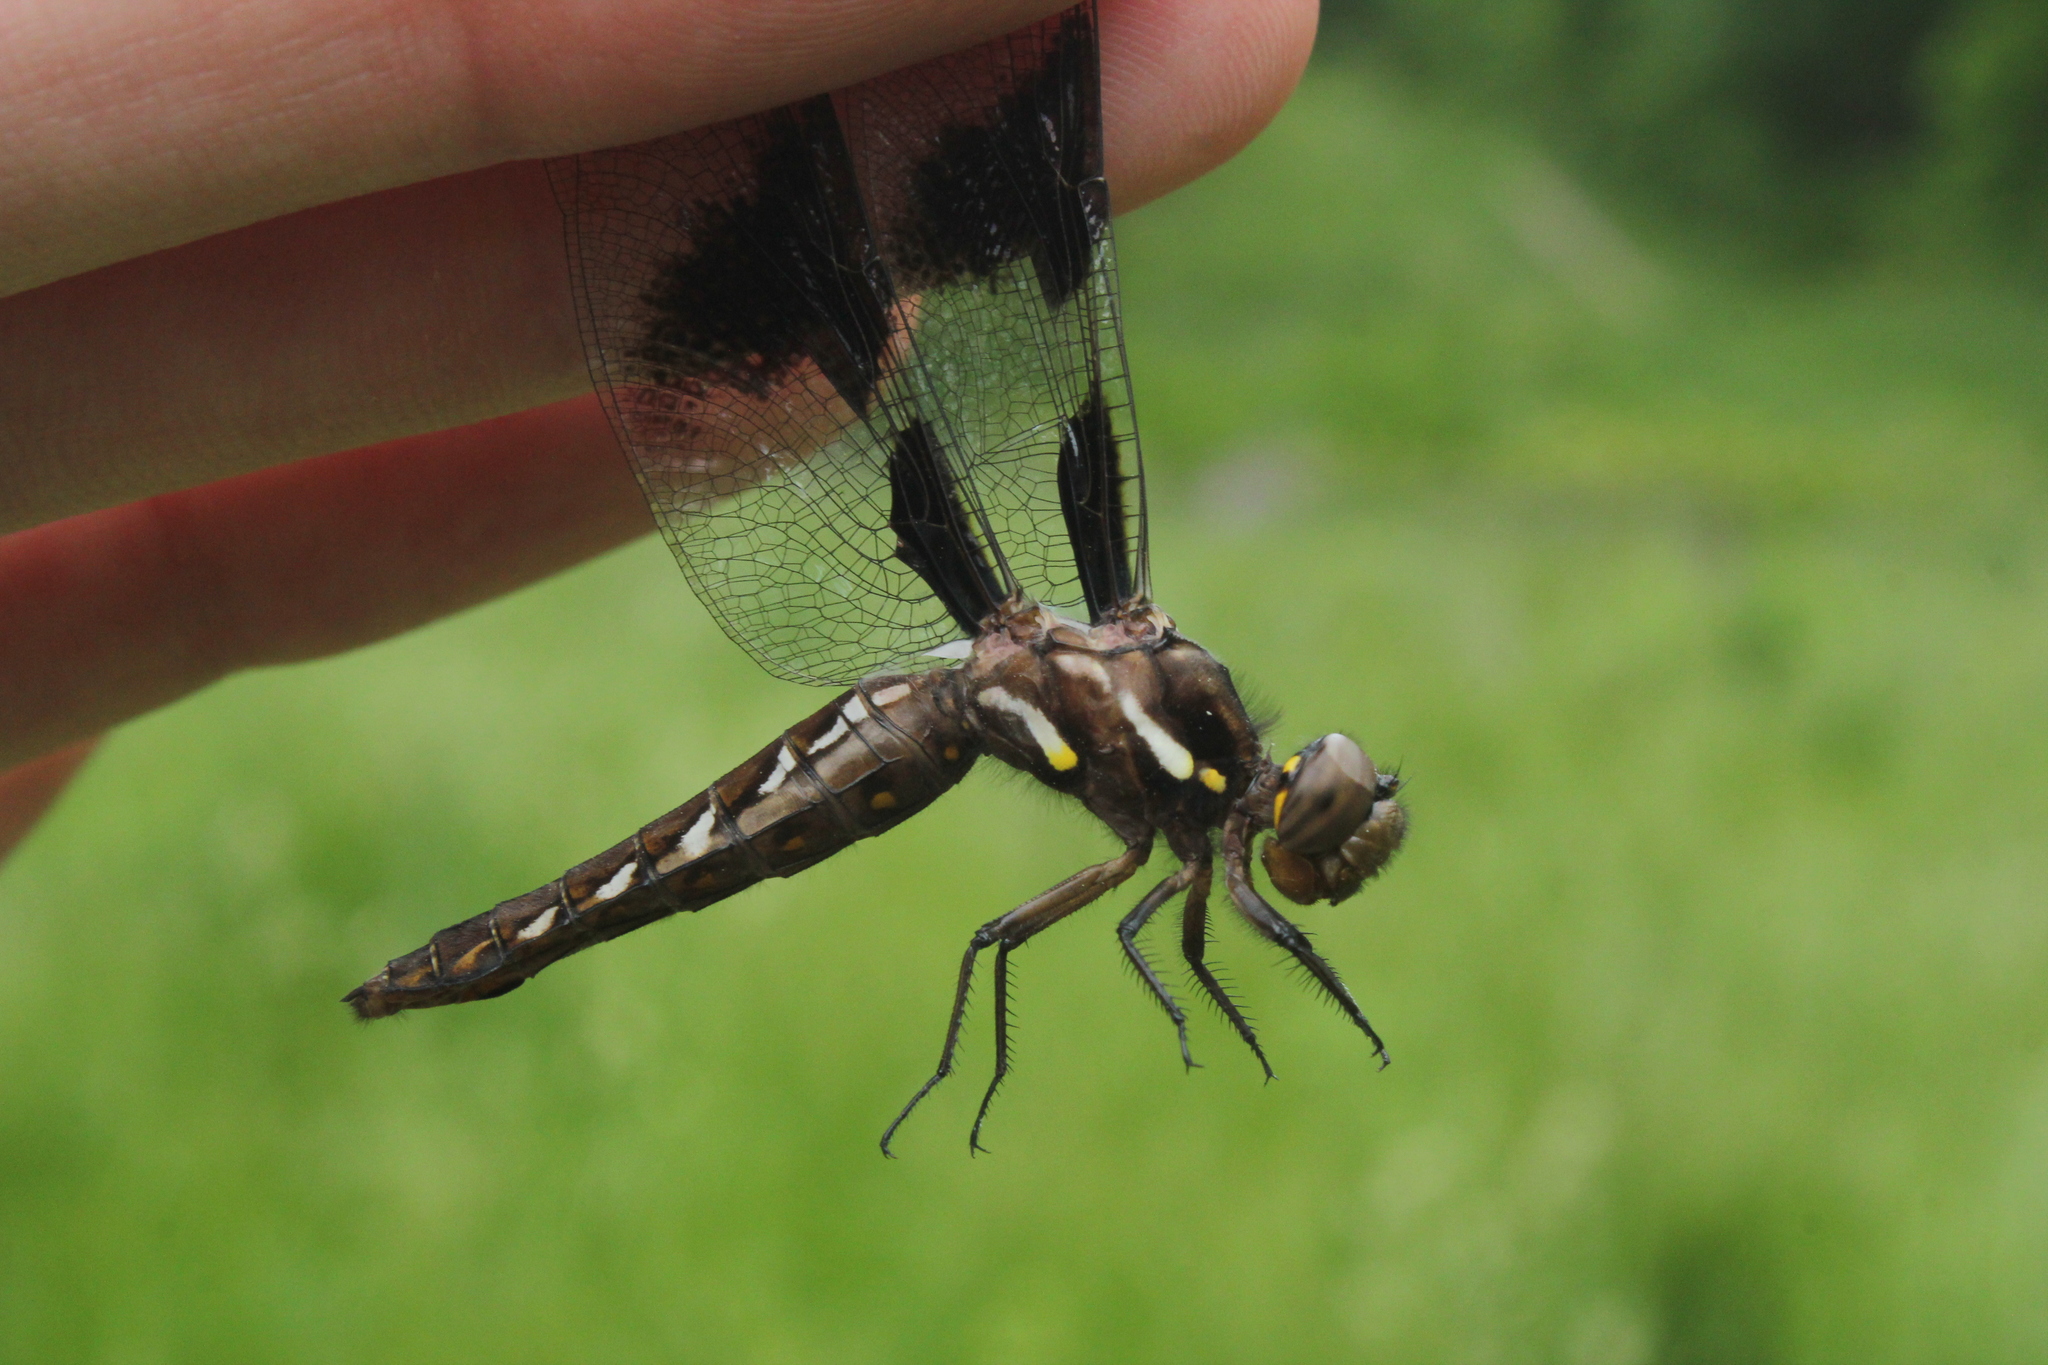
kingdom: Animalia
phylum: Arthropoda
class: Insecta
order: Odonata
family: Libellulidae
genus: Plathemis
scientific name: Plathemis lydia
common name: Common whitetail
